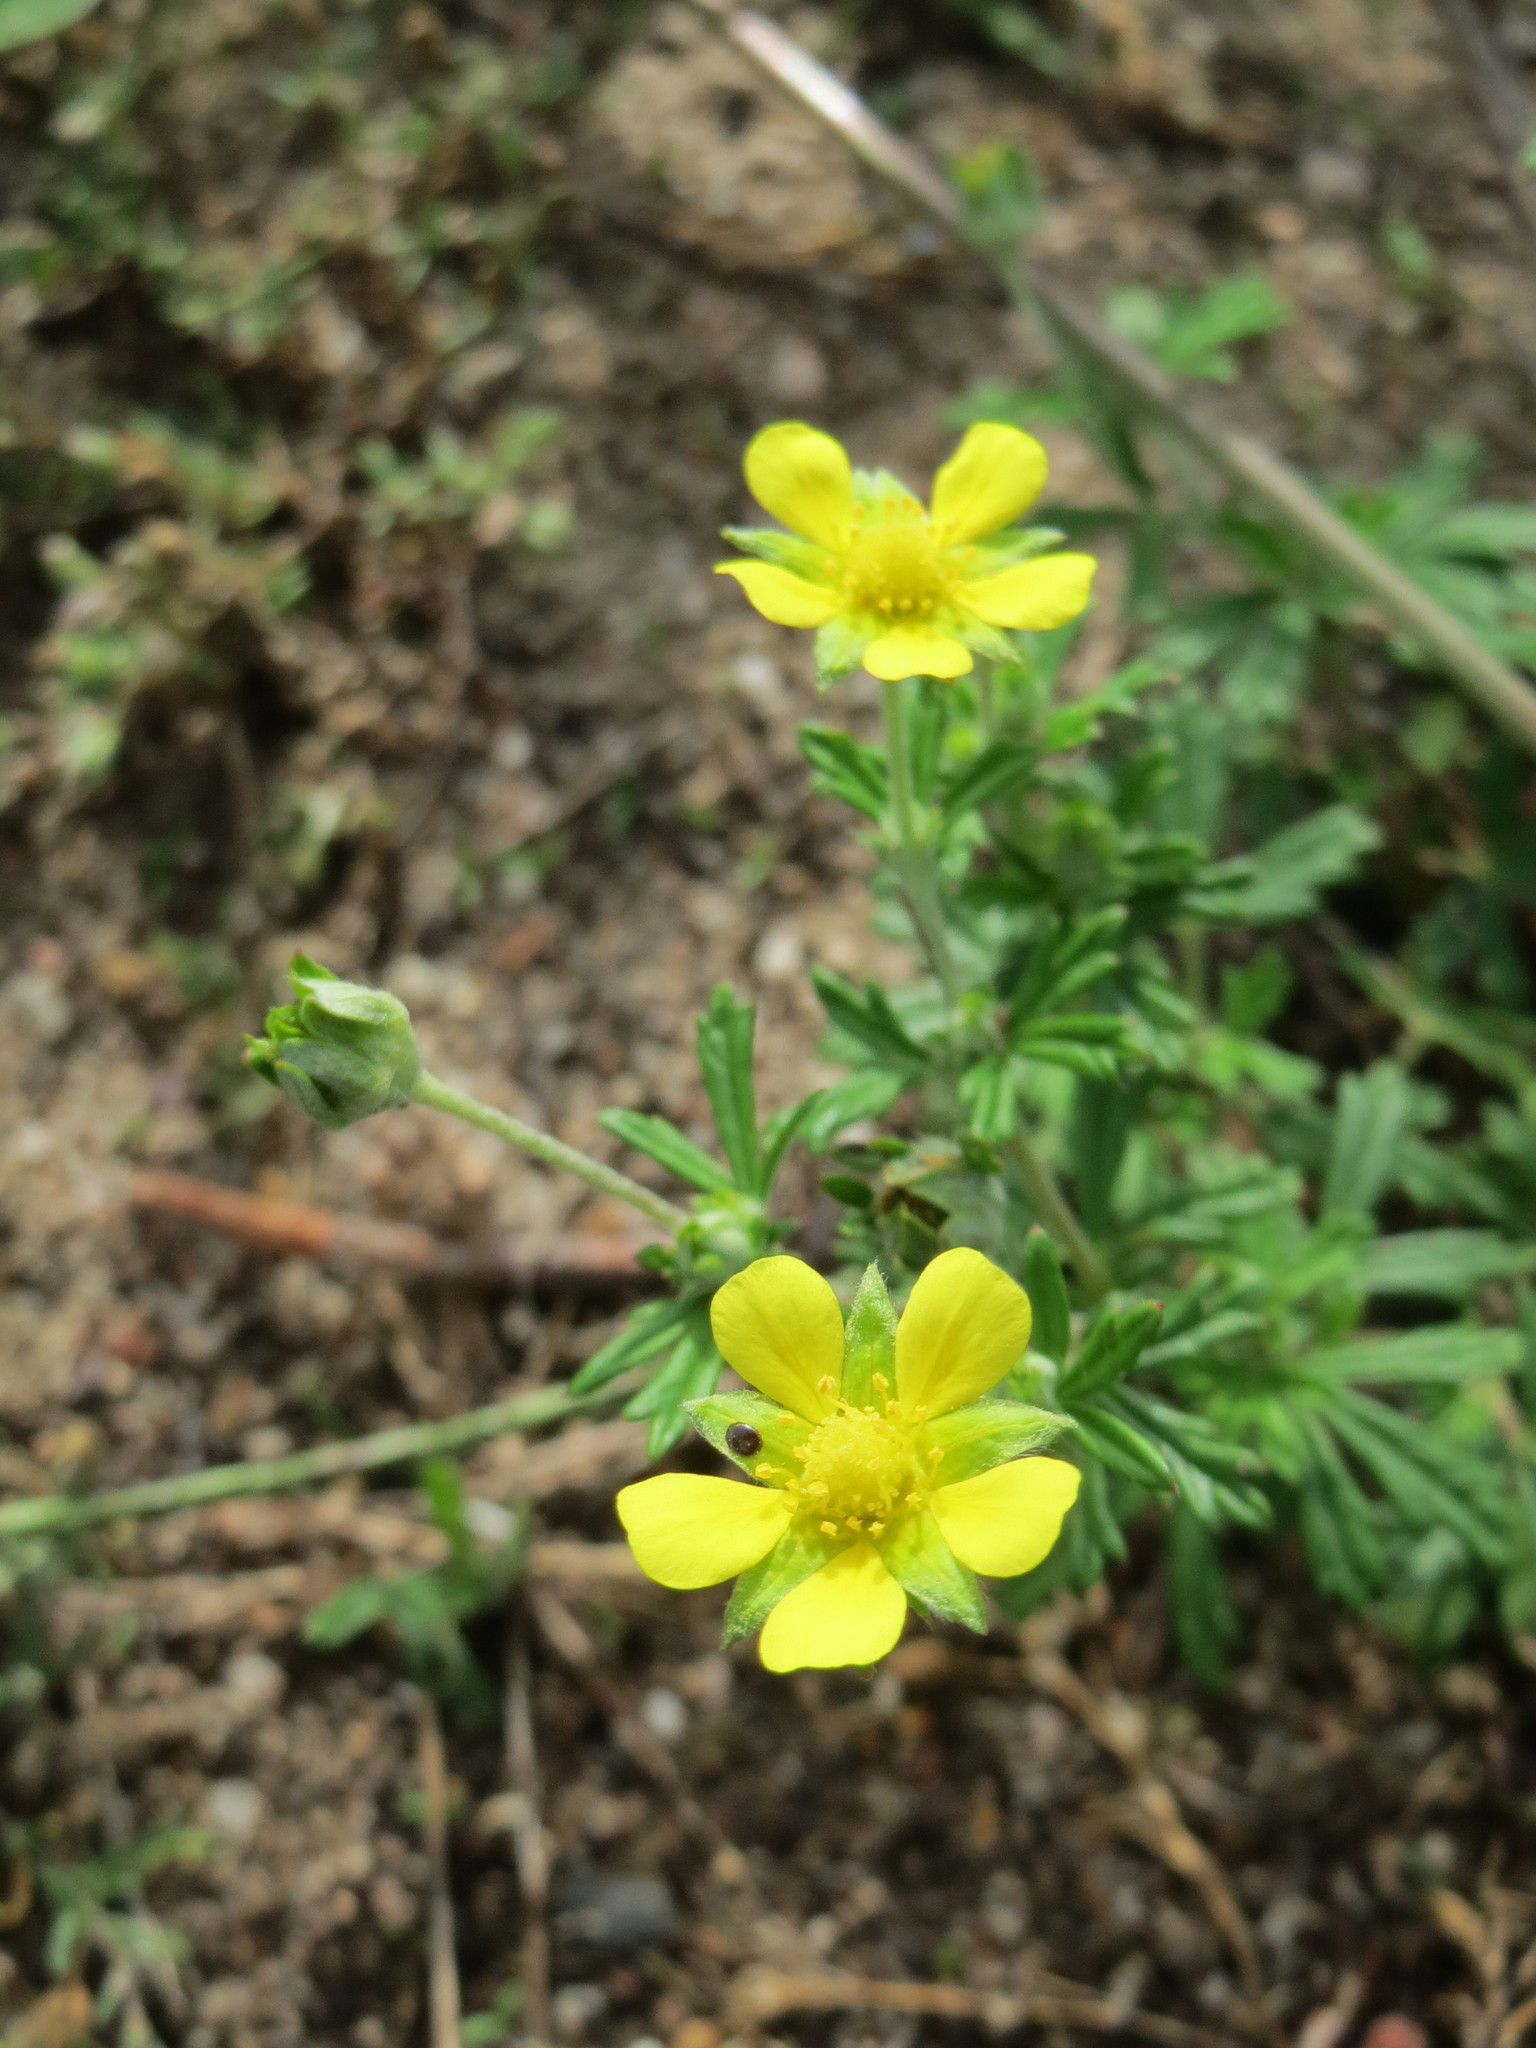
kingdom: Plantae
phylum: Tracheophyta
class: Magnoliopsida
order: Rosales
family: Rosaceae
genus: Potentilla
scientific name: Potentilla argentea
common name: Hoary cinquefoil
